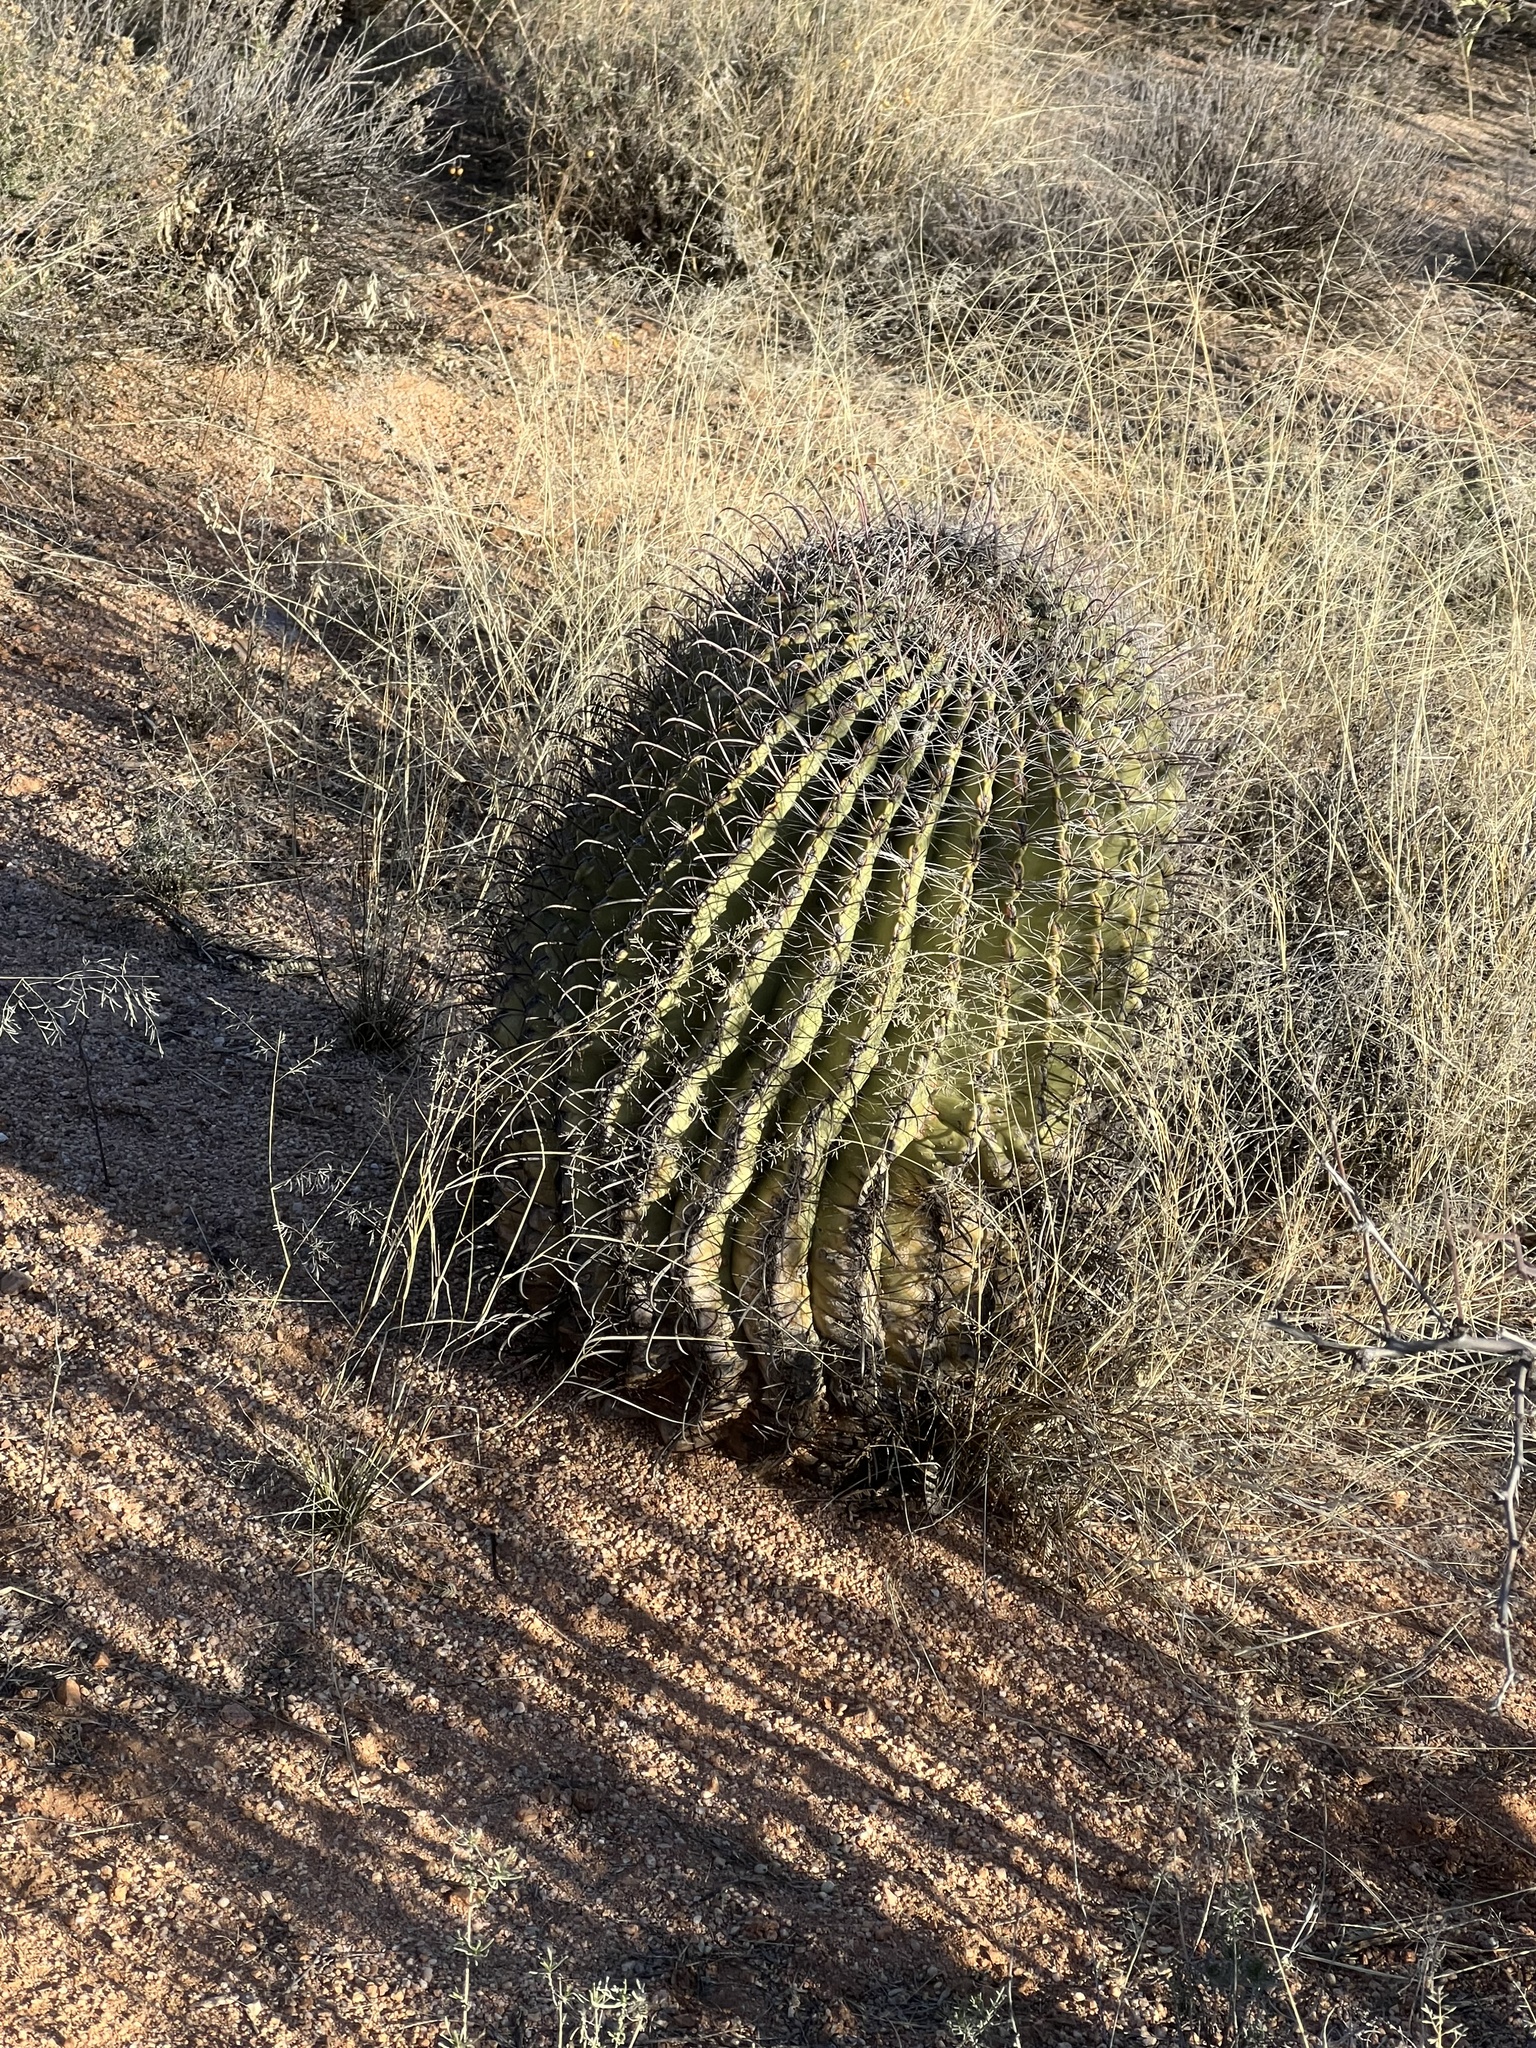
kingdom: Plantae
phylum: Tracheophyta
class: Magnoliopsida
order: Caryophyllales
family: Cactaceae
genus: Ferocactus
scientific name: Ferocactus wislizeni
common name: Candy barrel cactus
